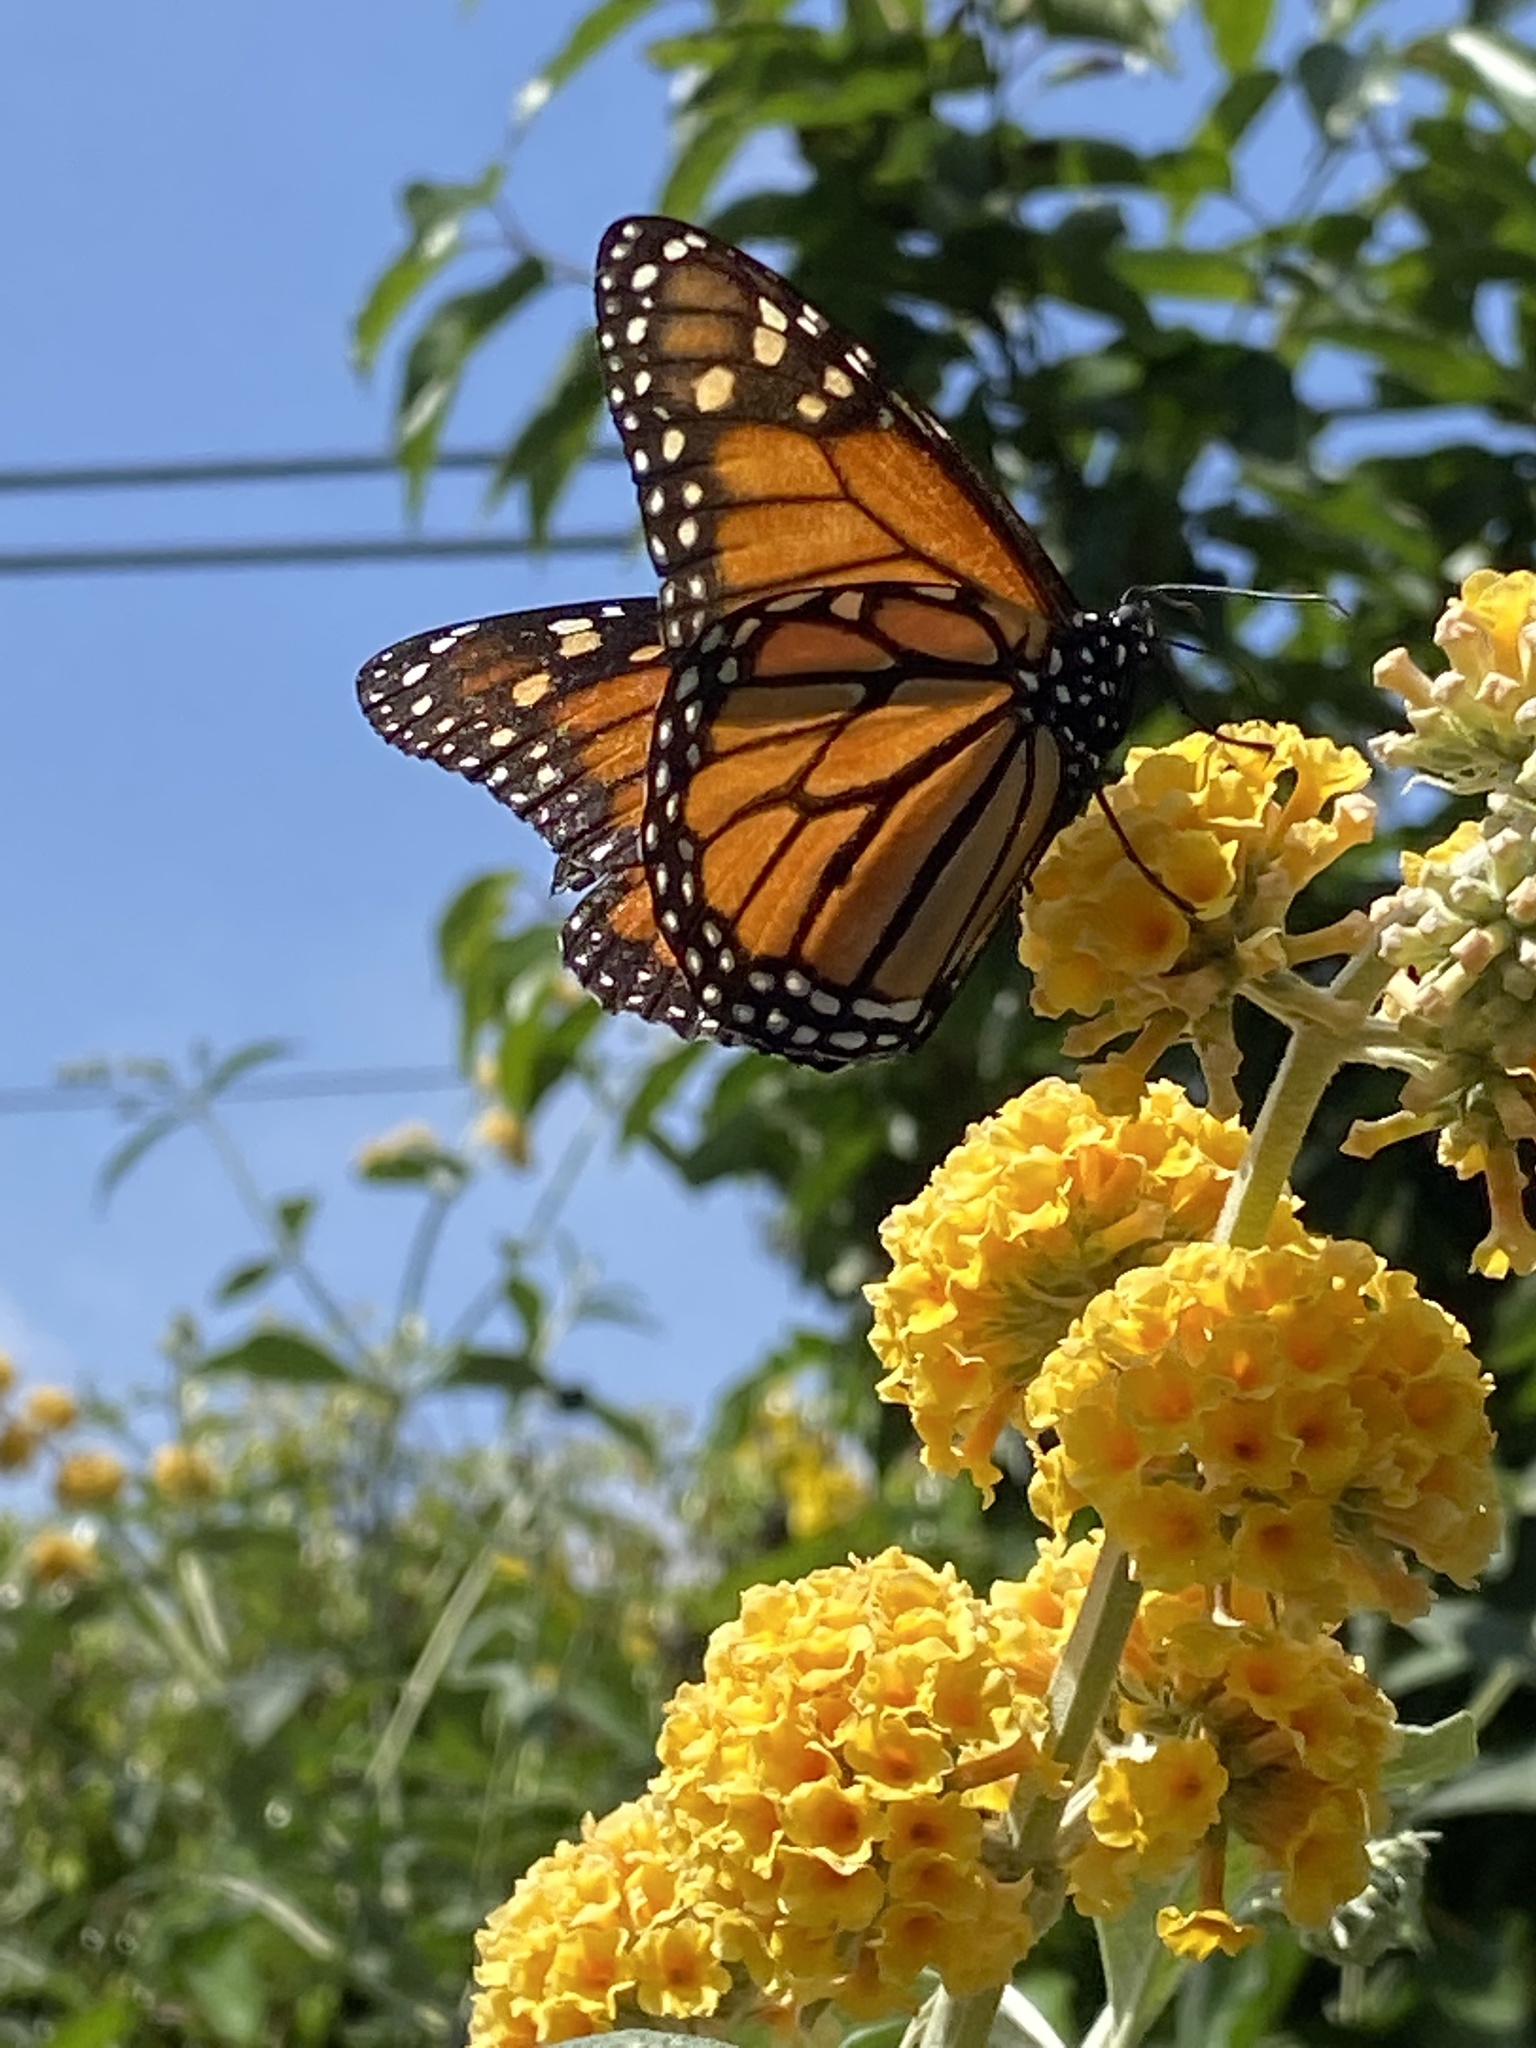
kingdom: Animalia
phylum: Arthropoda
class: Insecta
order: Lepidoptera
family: Nymphalidae
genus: Danaus
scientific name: Danaus plexippus
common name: Monarch
